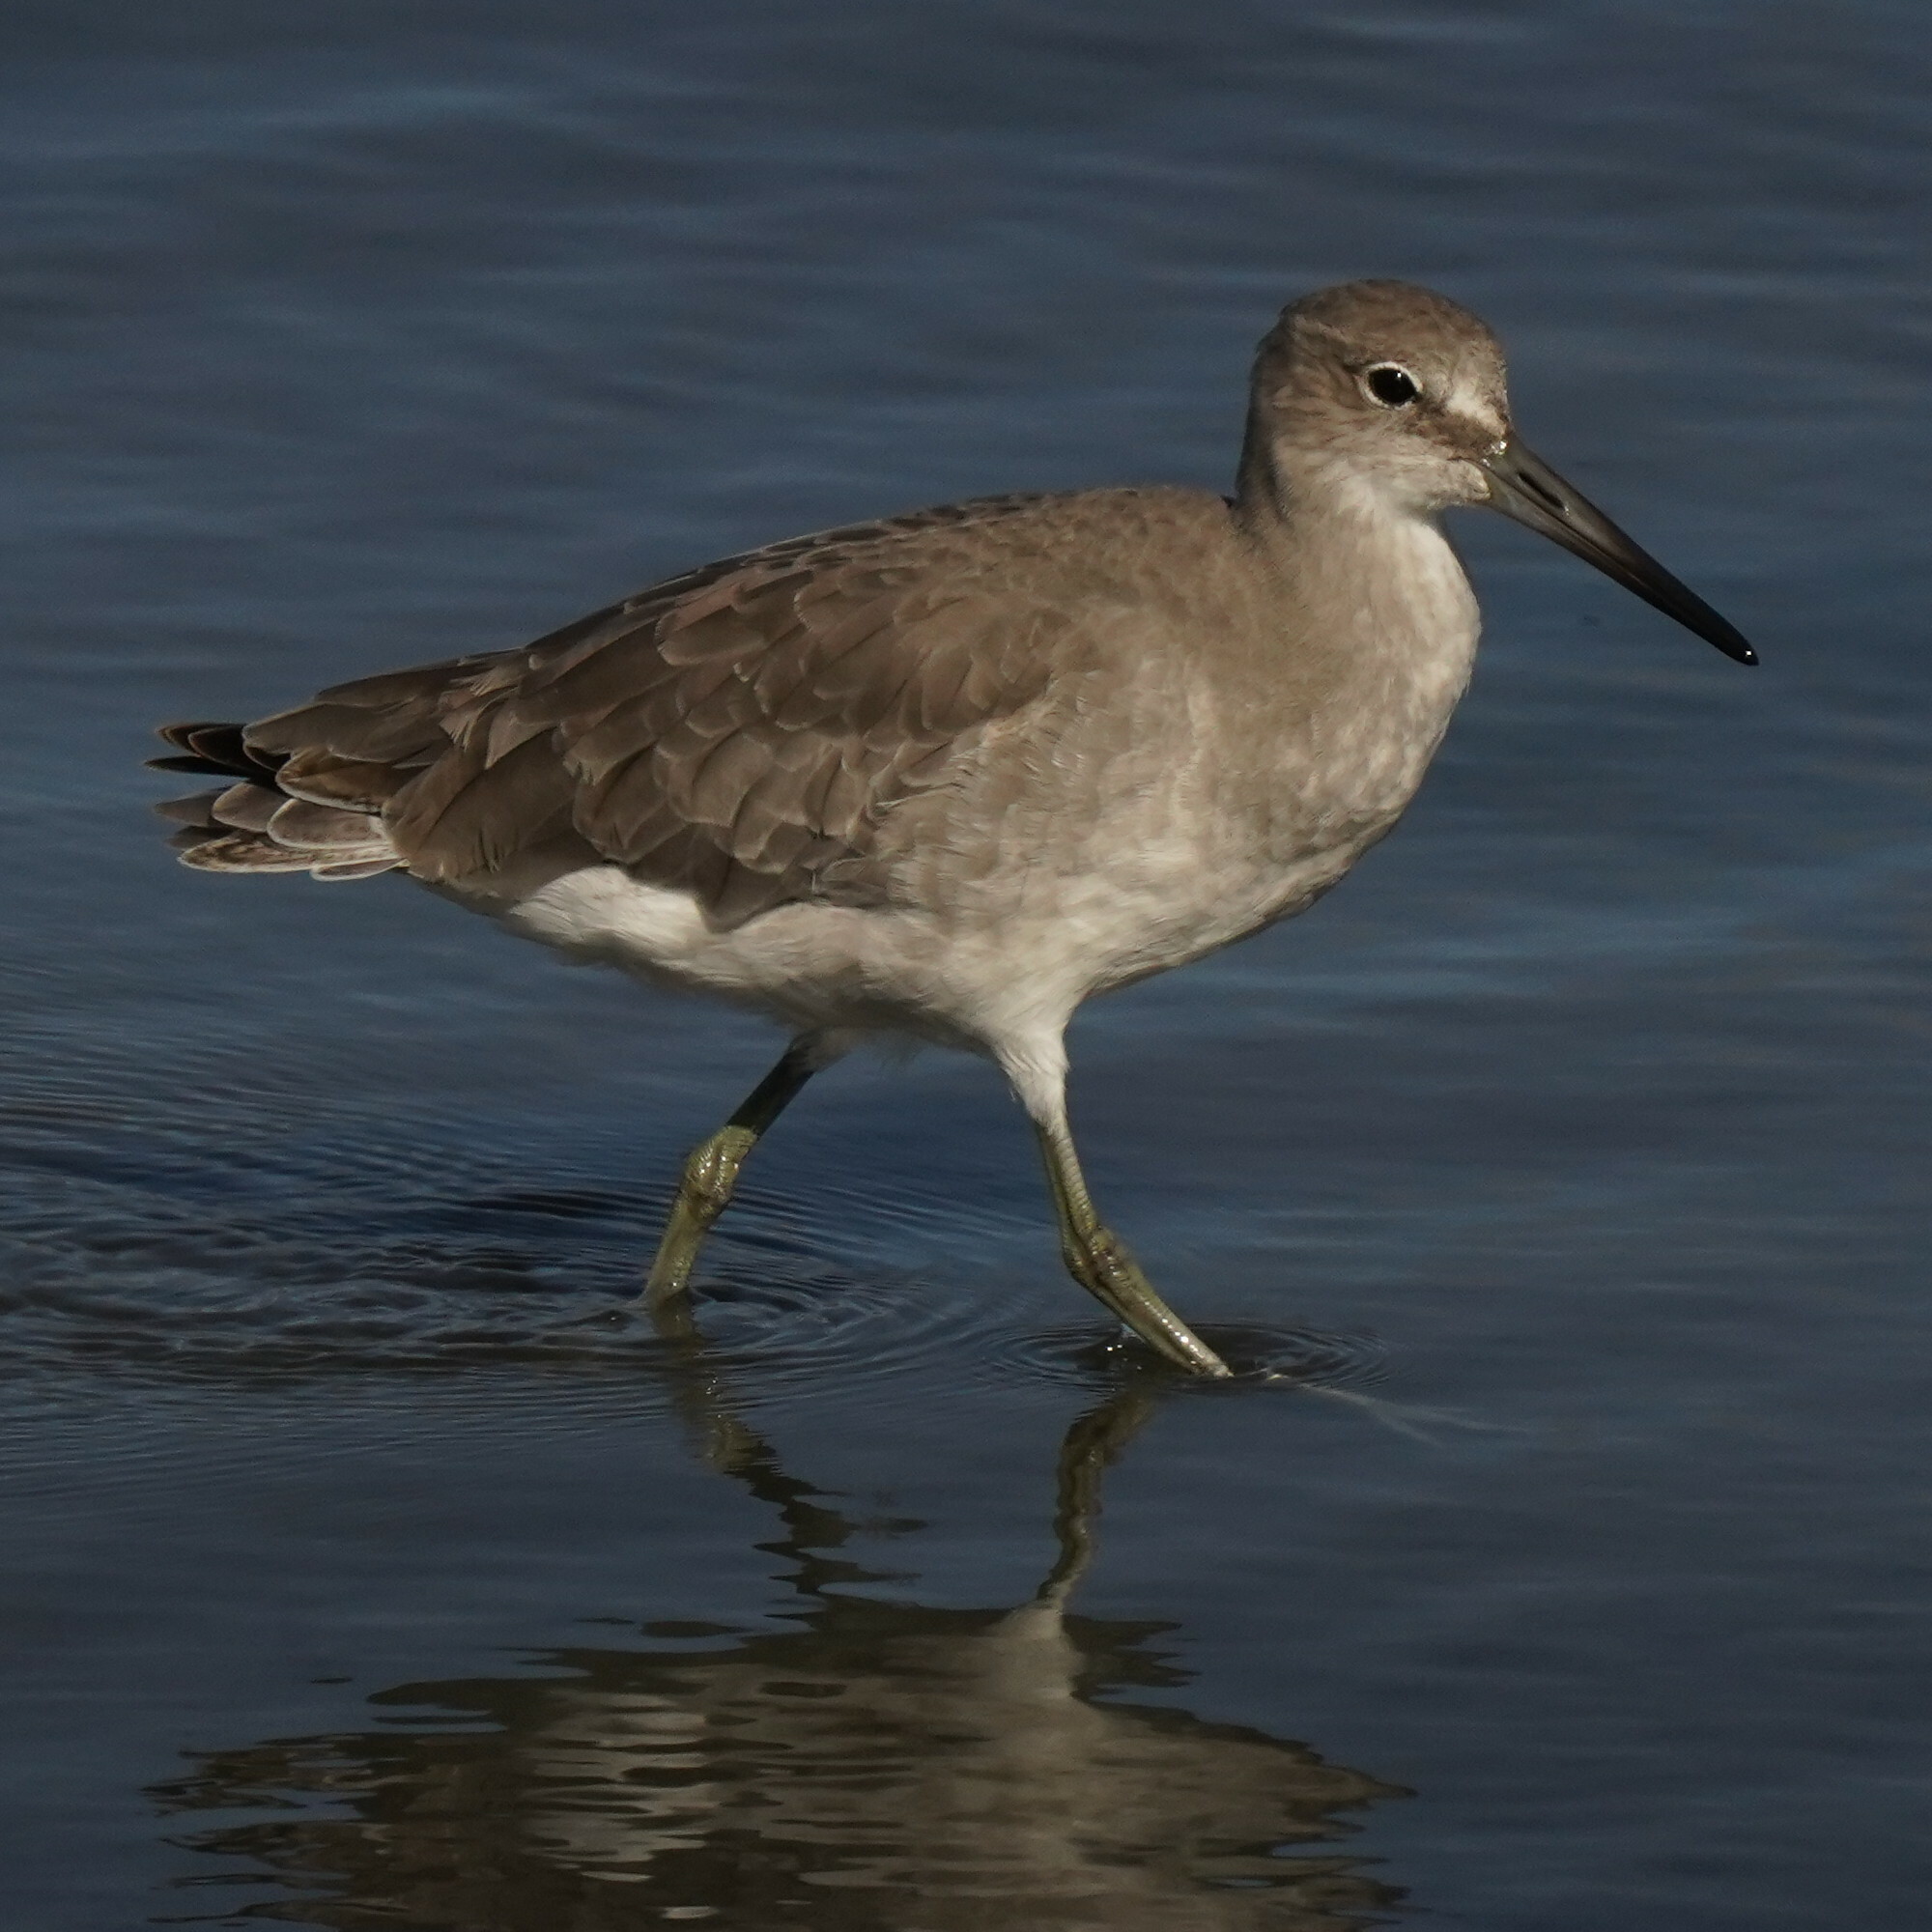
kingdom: Animalia
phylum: Chordata
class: Aves
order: Charadriiformes
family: Scolopacidae
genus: Tringa
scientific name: Tringa semipalmata
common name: Willet
